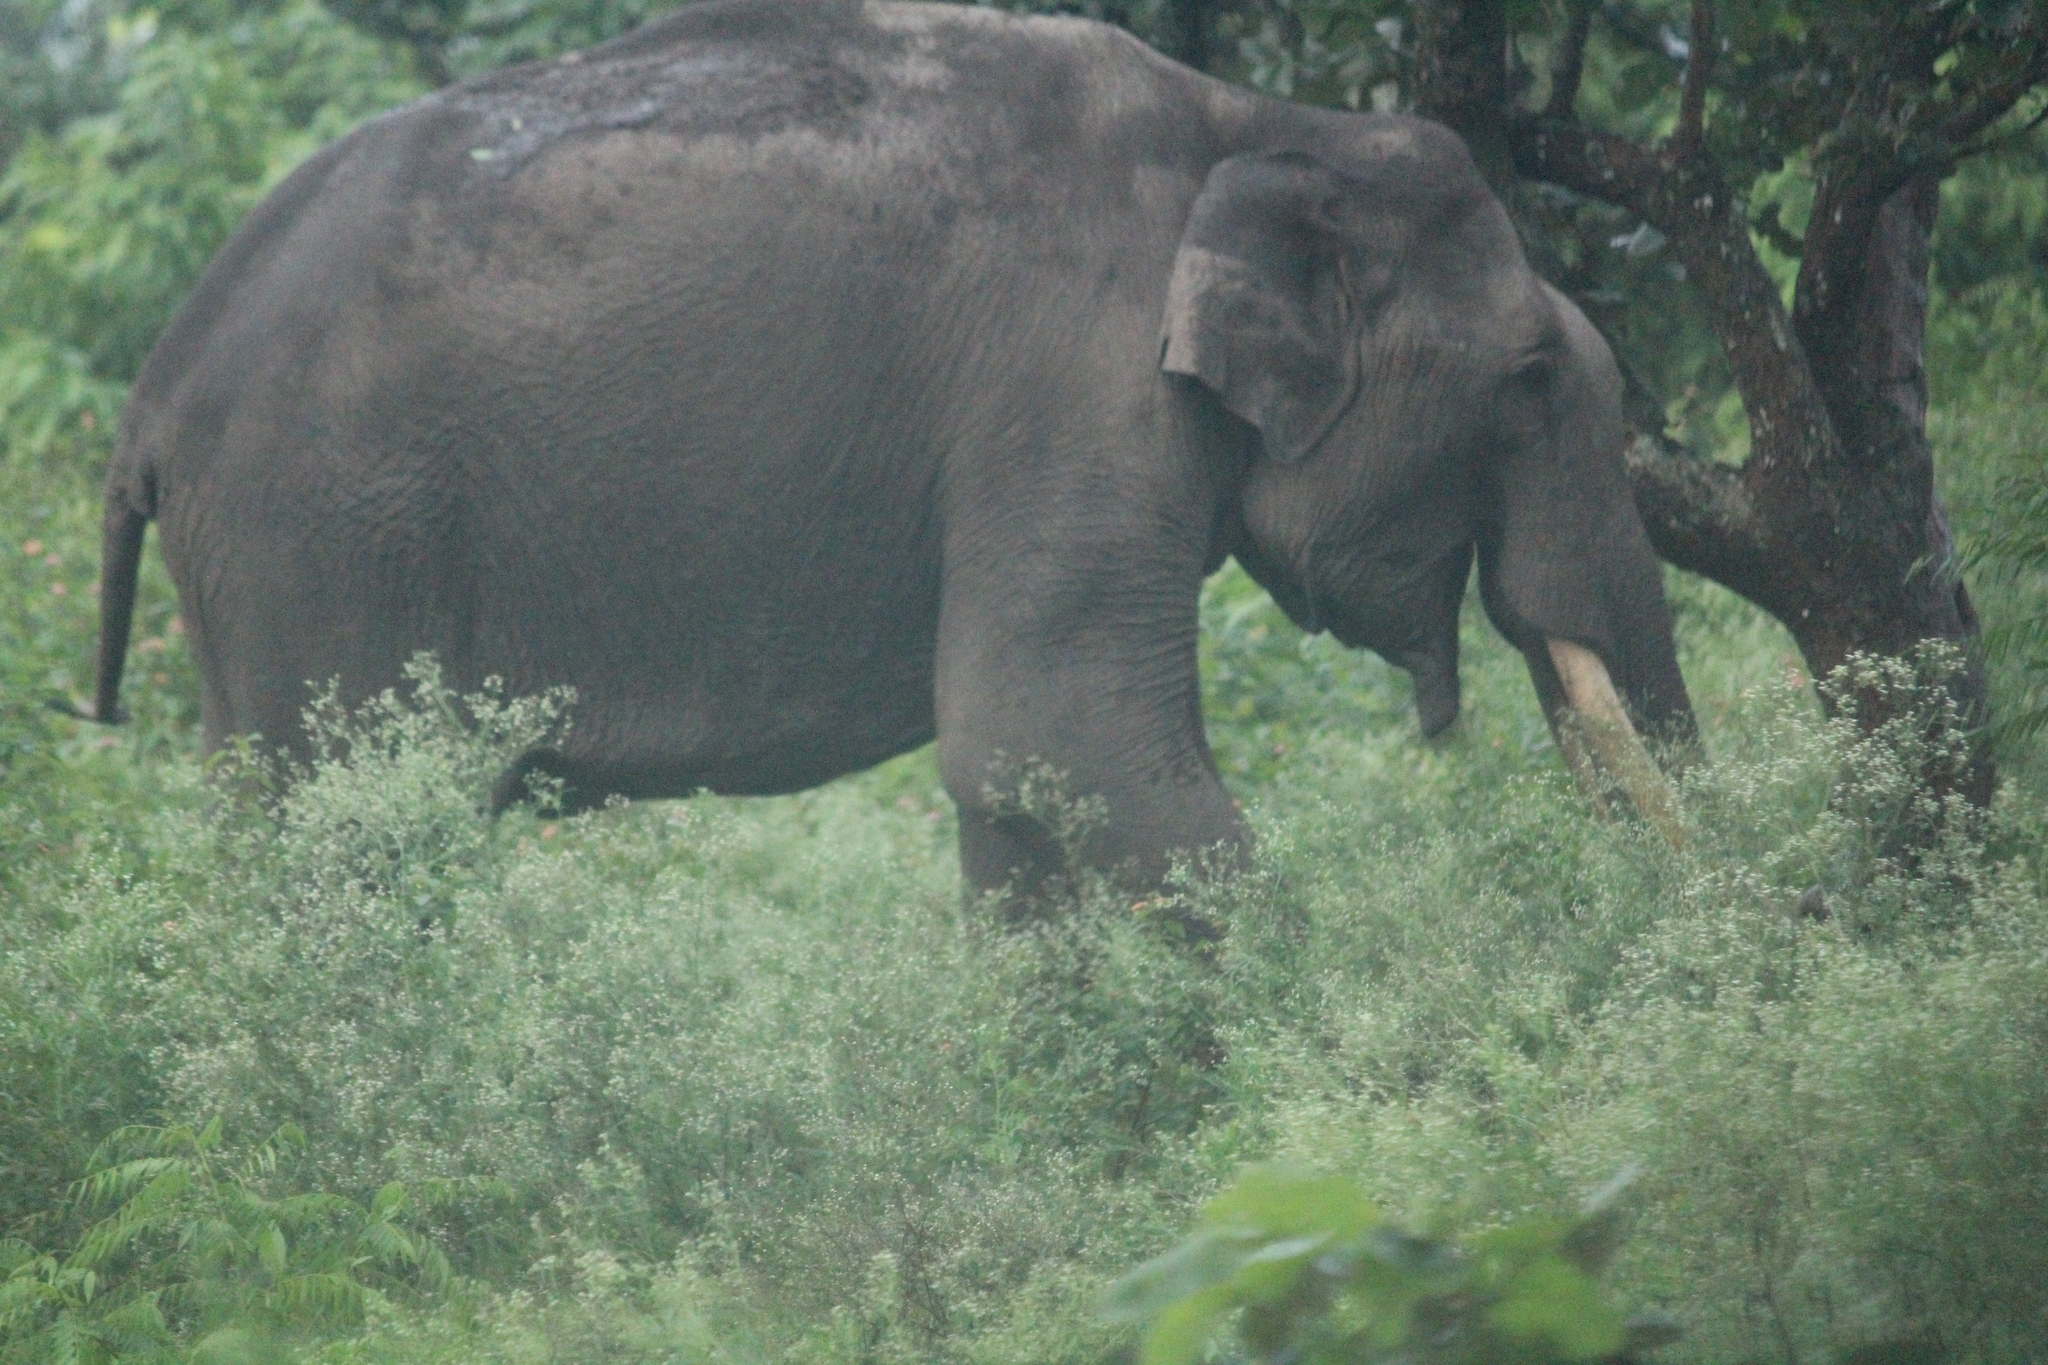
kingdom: Animalia
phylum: Chordata
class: Mammalia
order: Proboscidea
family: Elephantidae
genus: Elephas
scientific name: Elephas maximus
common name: Asian elephant
